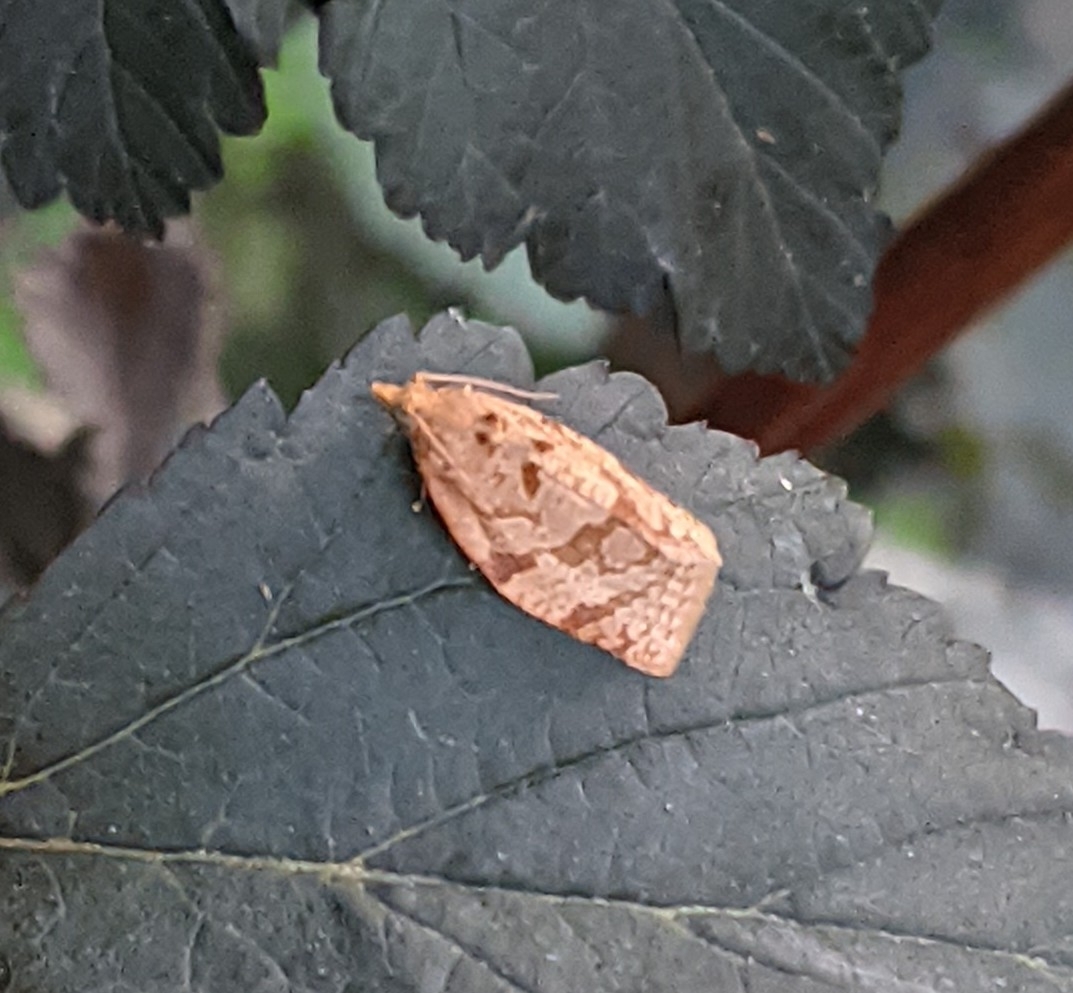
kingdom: Animalia
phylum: Arthropoda
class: Insecta
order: Lepidoptera
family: Tortricidae
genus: Adoxophyes
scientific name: Adoxophyes orana
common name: Summer fruit tortrix
